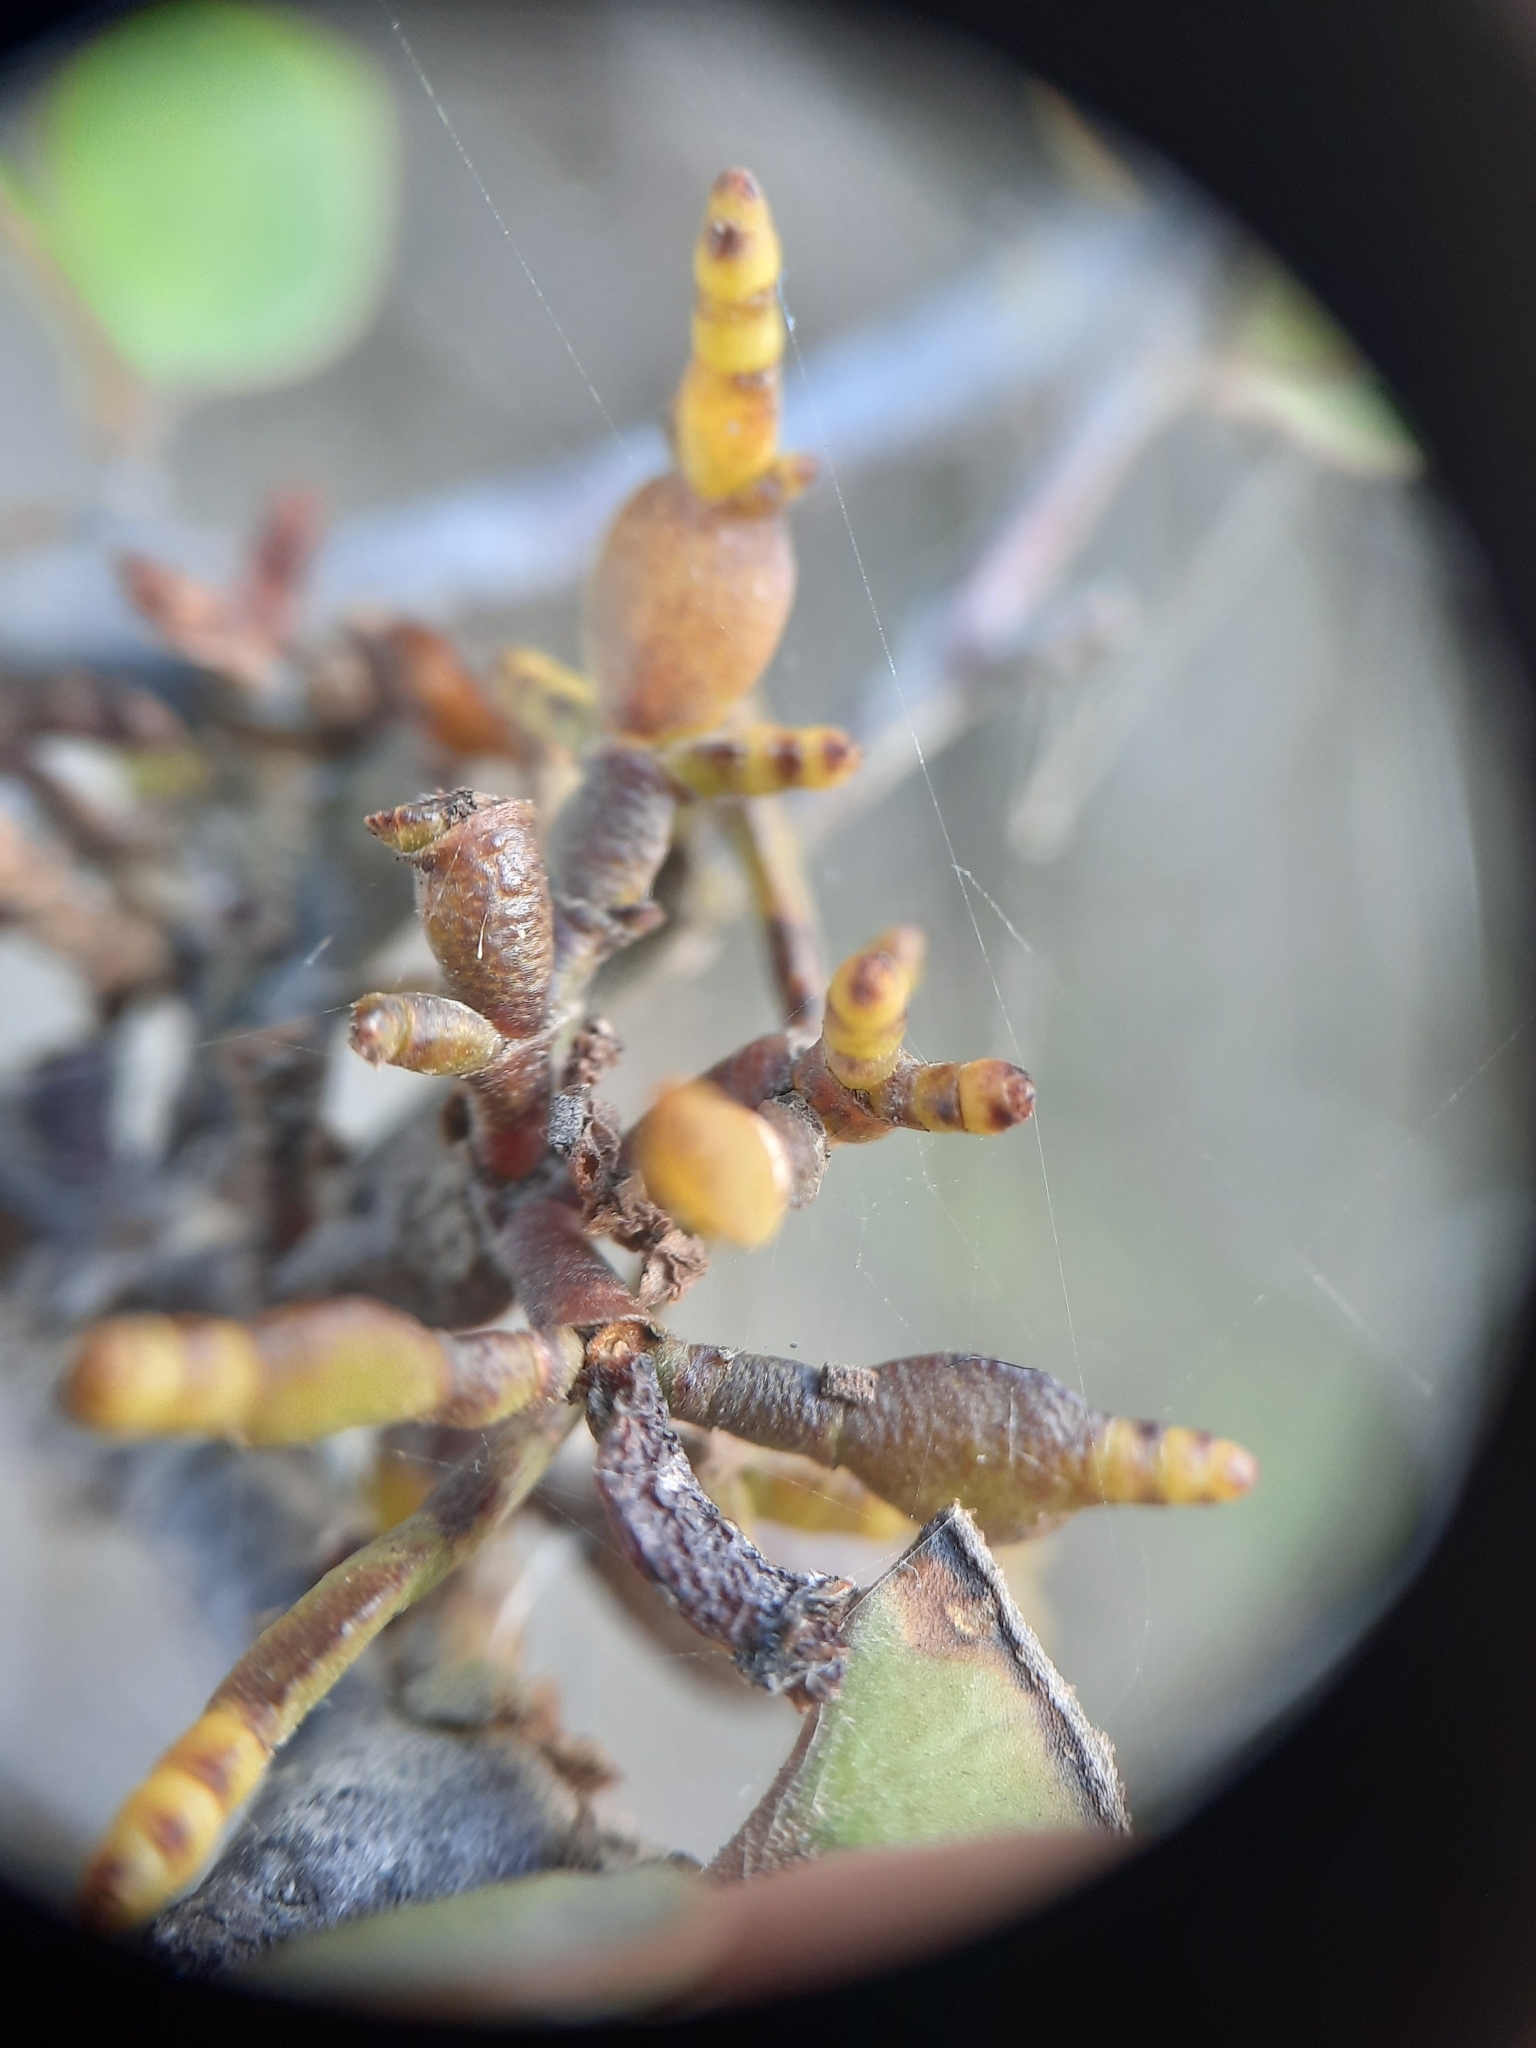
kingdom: Plantae
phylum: Tracheophyta
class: Magnoliopsida
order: Santalales
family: Viscaceae
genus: Korthalsella
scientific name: Korthalsella clavata
